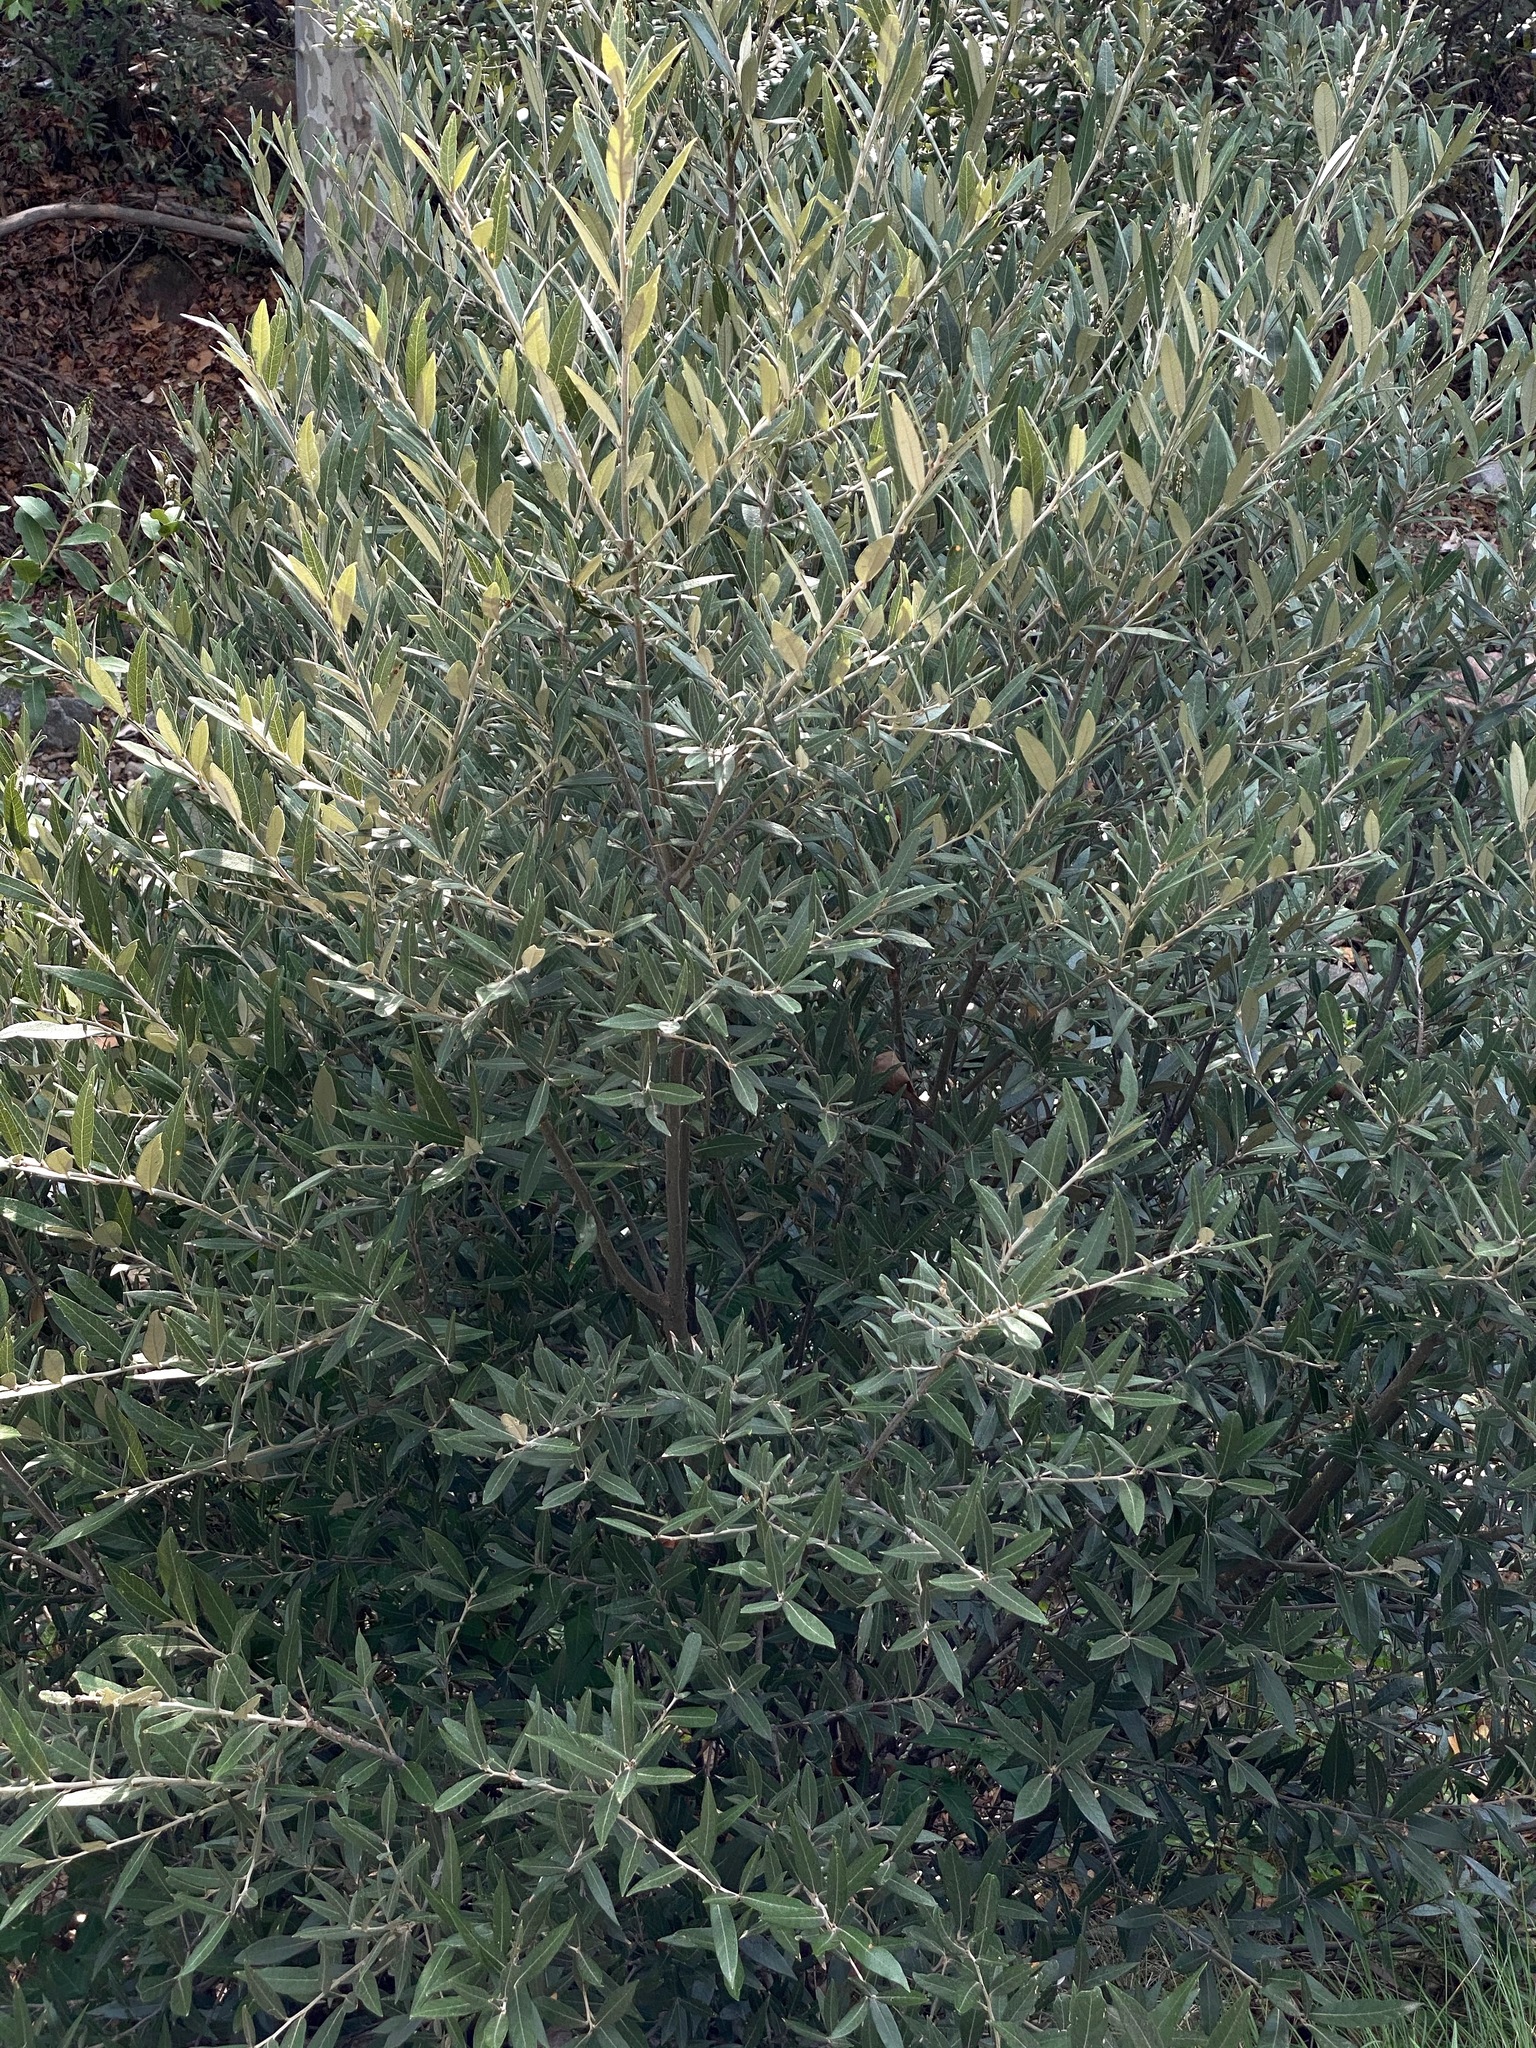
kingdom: Plantae
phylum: Tracheophyta
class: Magnoliopsida
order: Fagales
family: Fagaceae
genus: Quercus
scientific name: Quercus hypoleucoides
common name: Silverleaf oak
